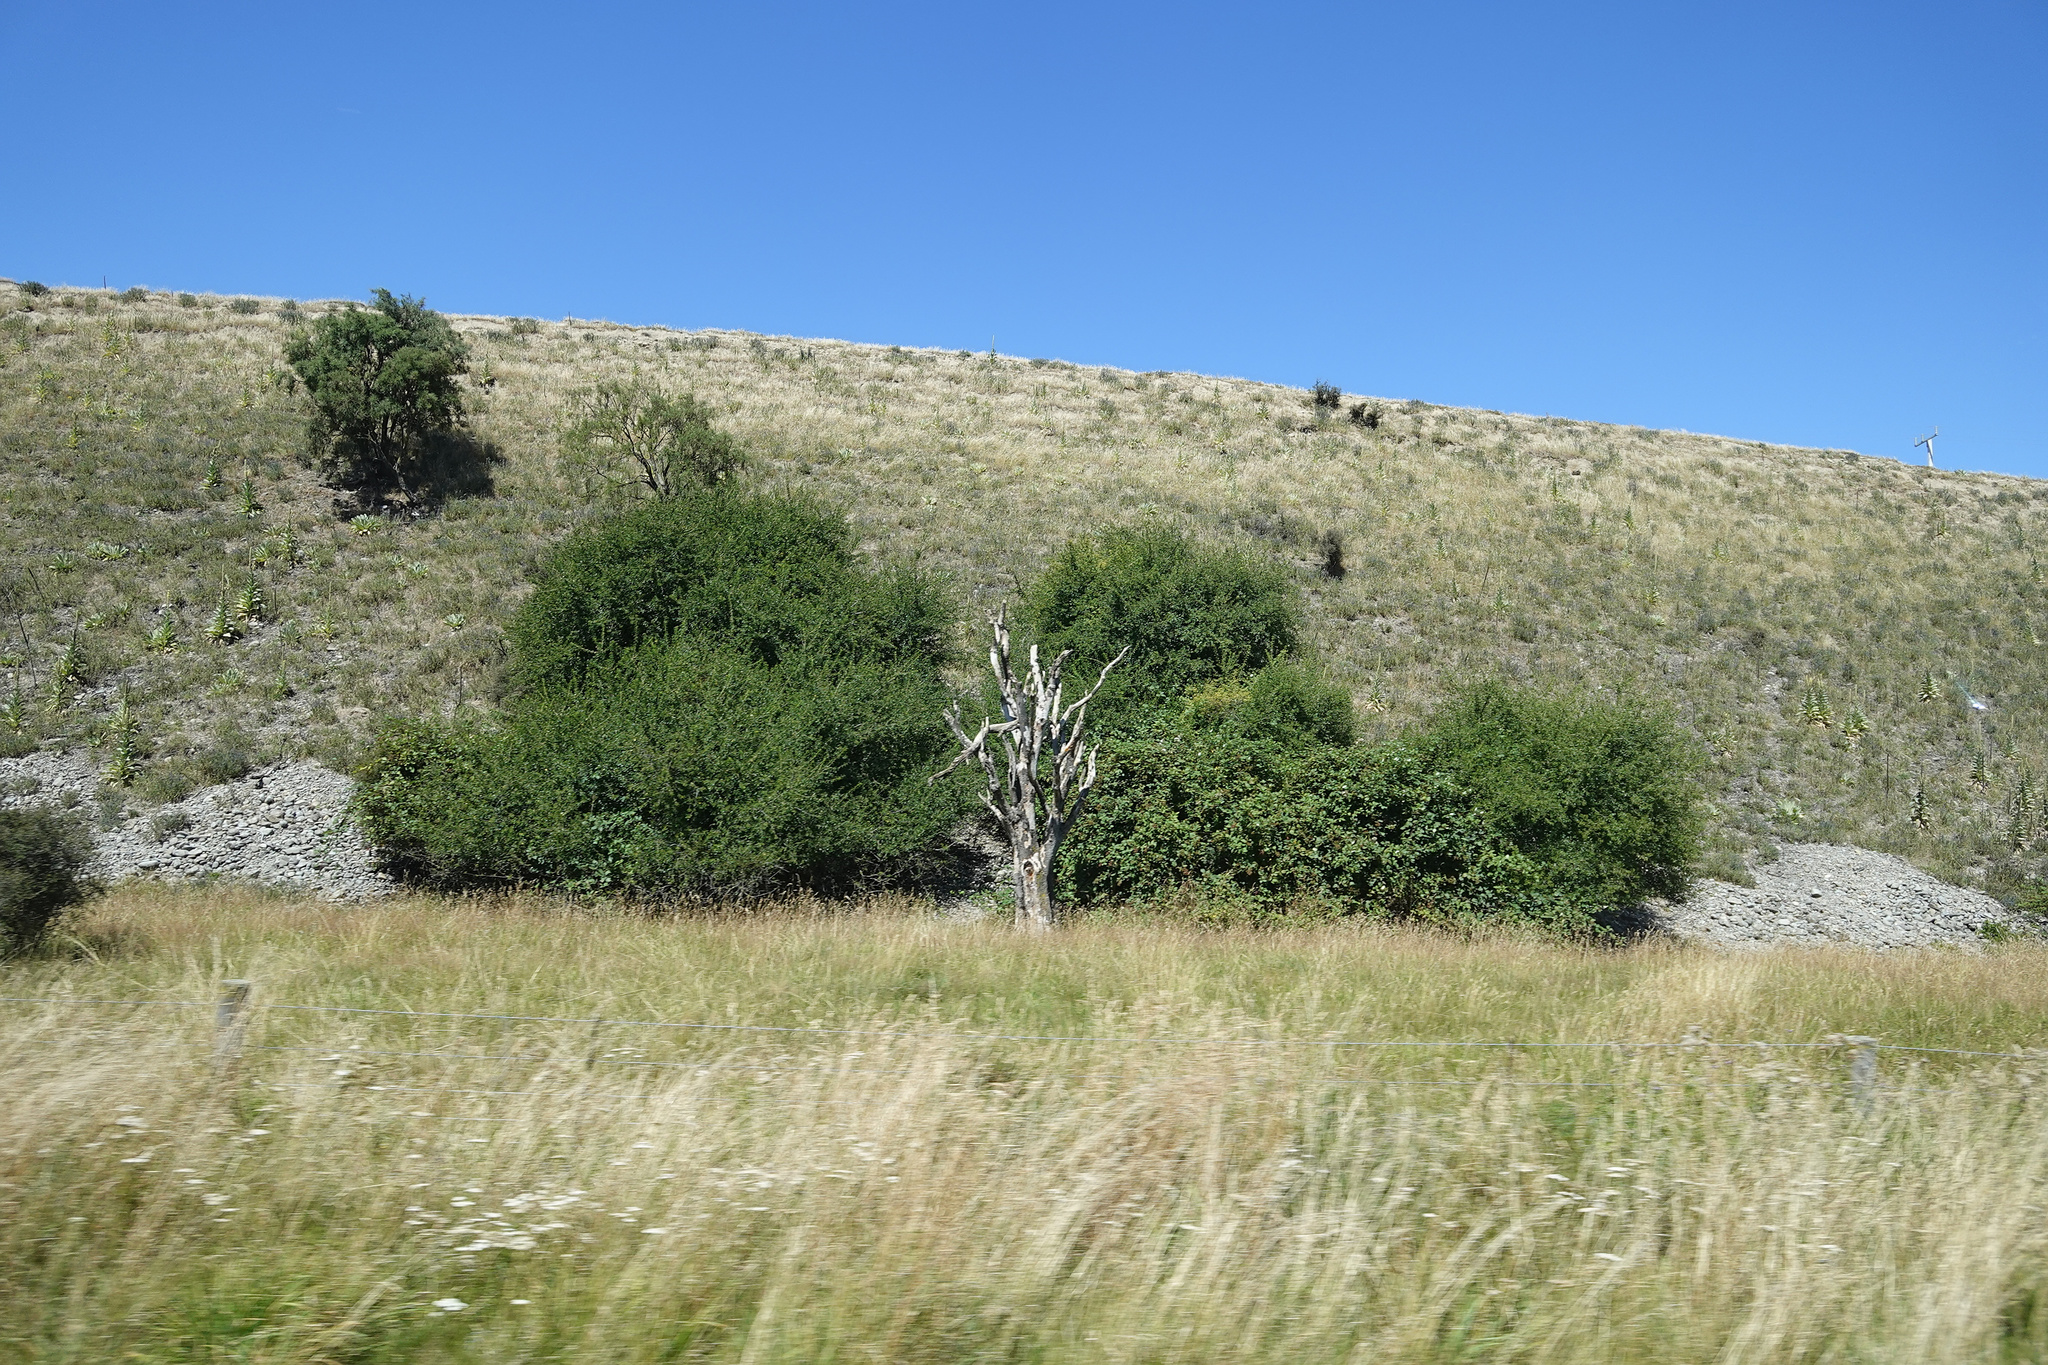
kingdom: Plantae
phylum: Tracheophyta
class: Liliopsida
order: Asparagales
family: Asparagaceae
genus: Cordyline
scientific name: Cordyline australis
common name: Cabbage-palm
